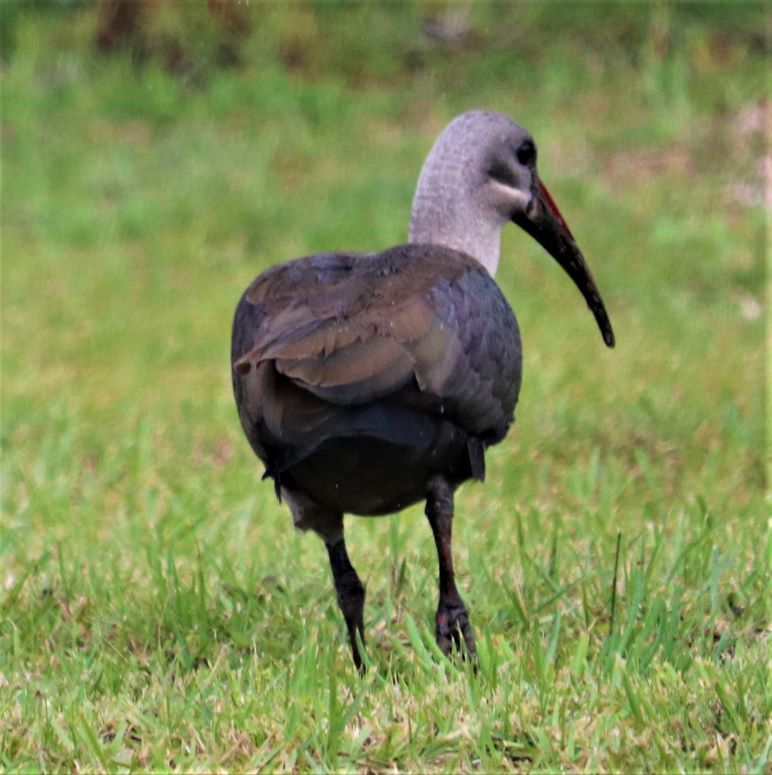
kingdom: Animalia
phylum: Chordata
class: Aves
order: Pelecaniformes
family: Threskiornithidae
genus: Bostrychia
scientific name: Bostrychia hagedash
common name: Hadada ibis
